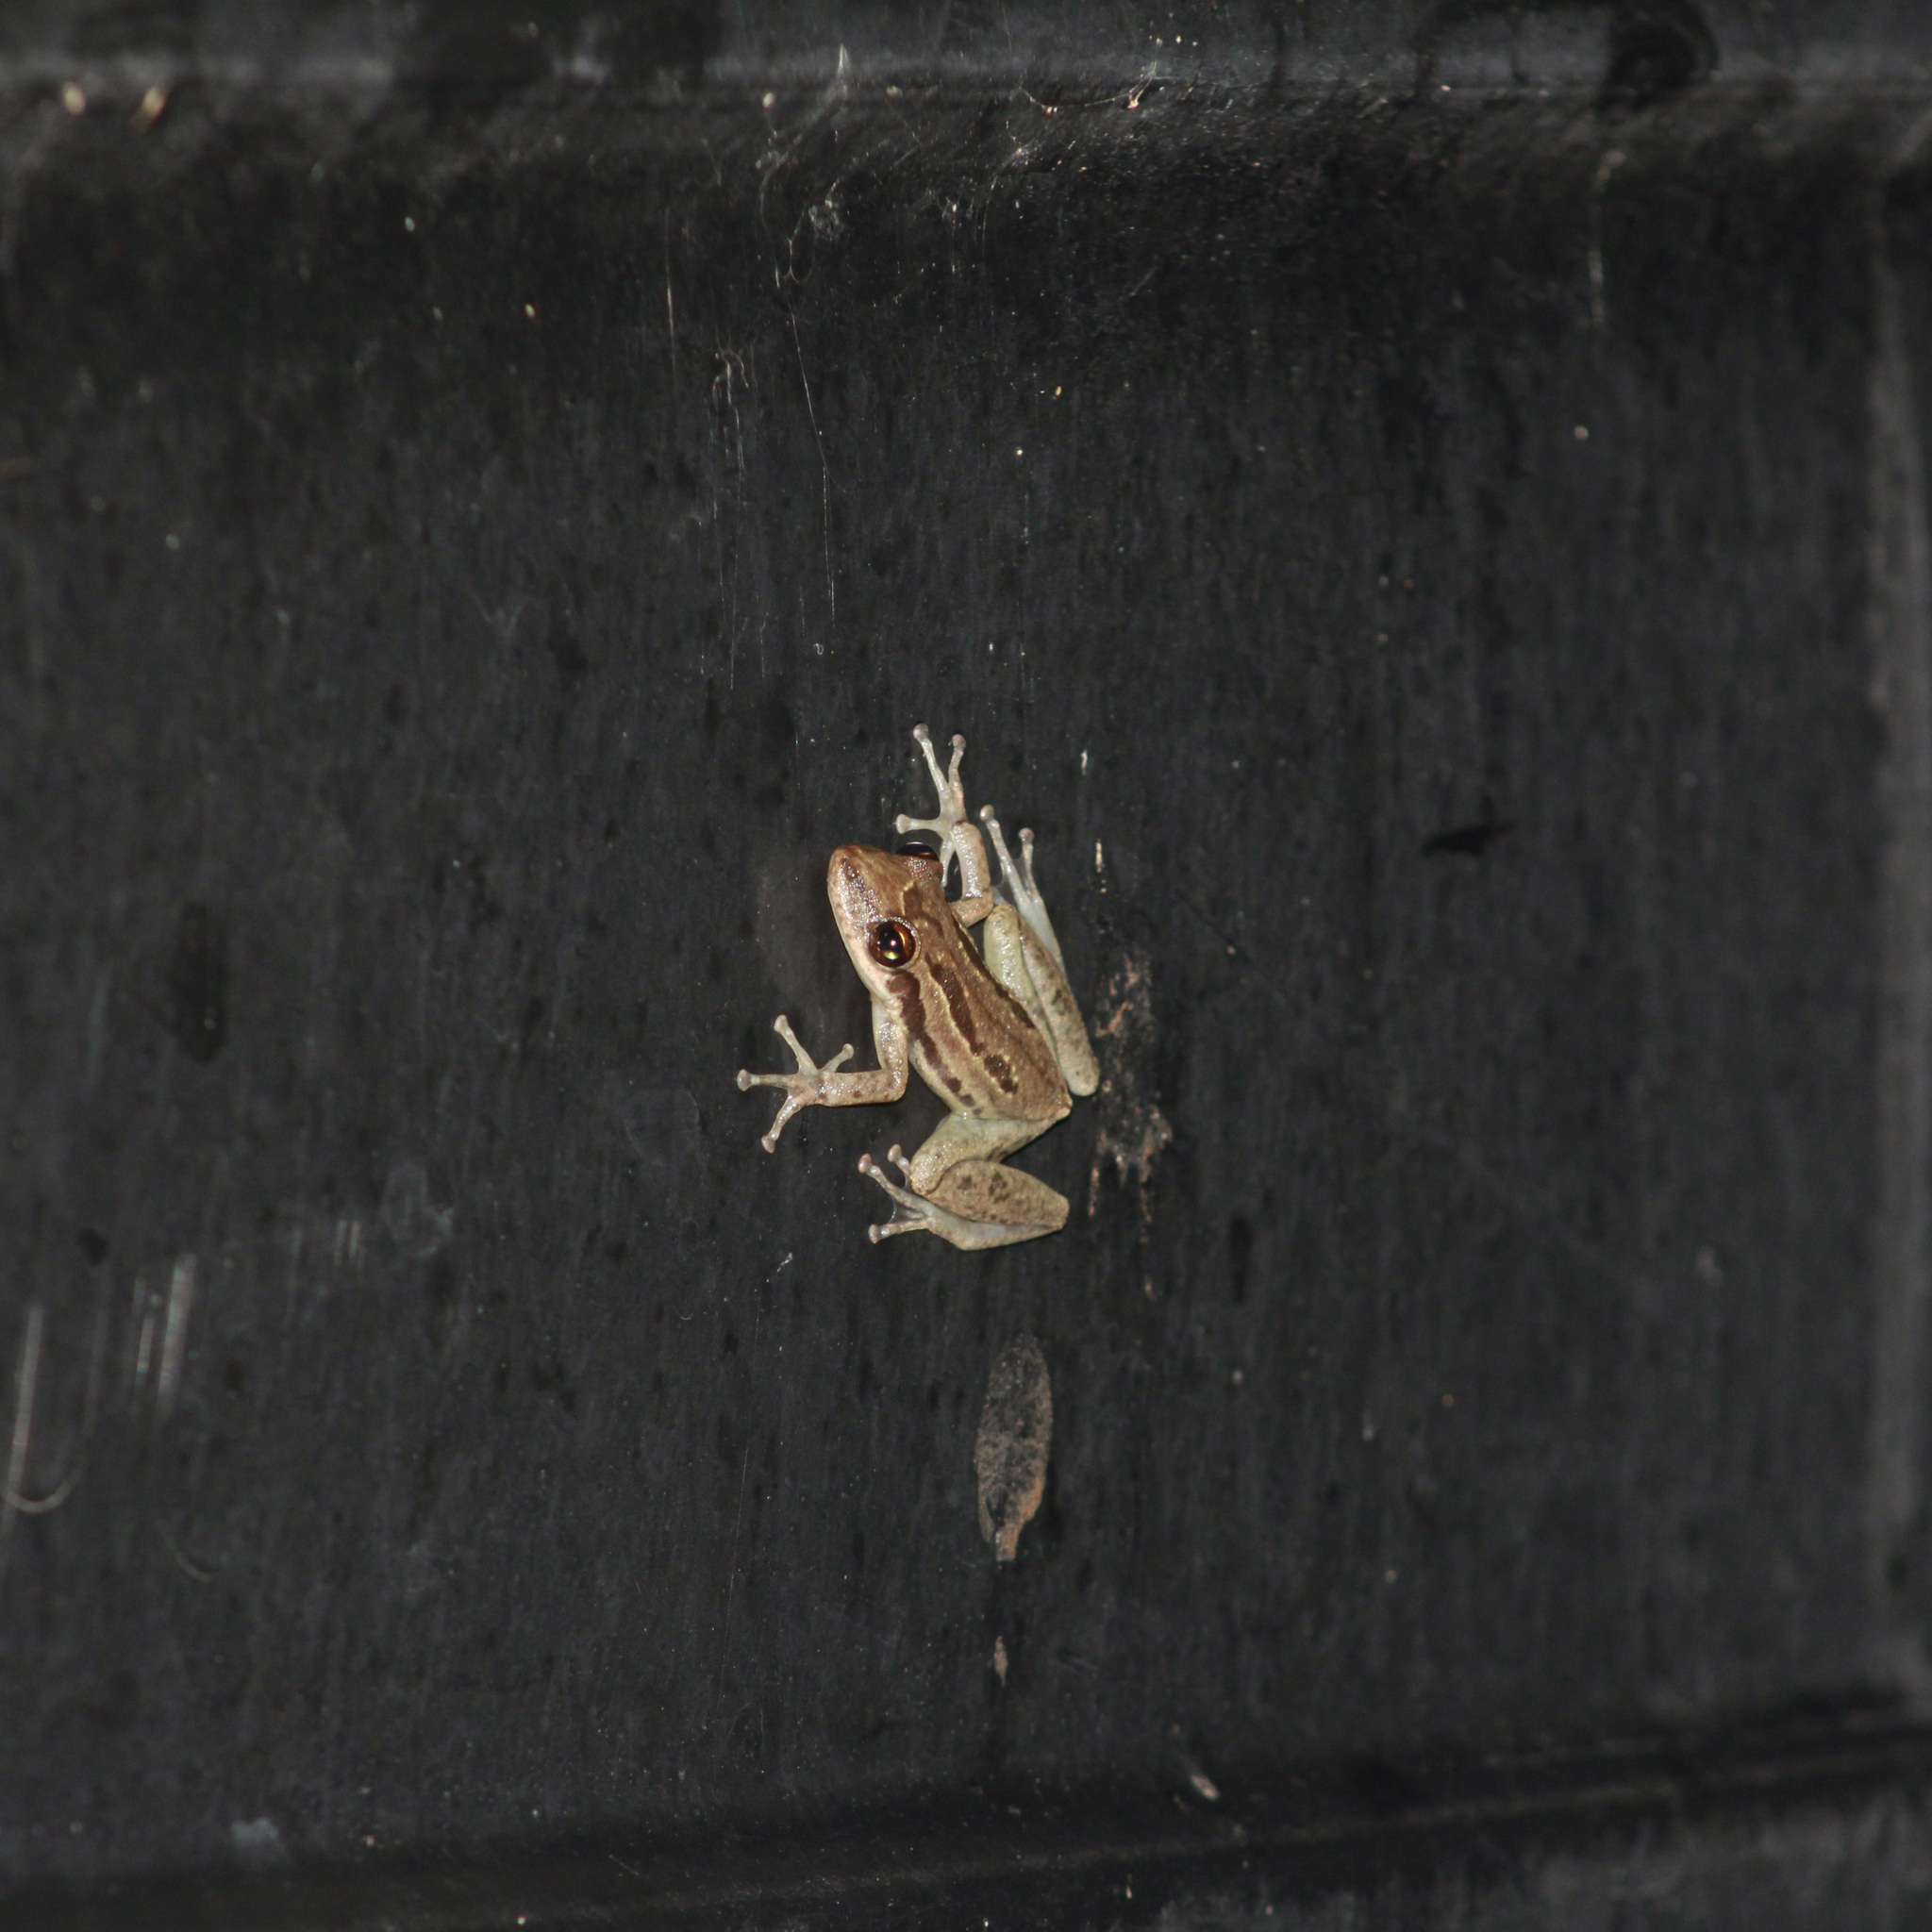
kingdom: Animalia
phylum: Chordata
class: Amphibia
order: Anura
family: Hylidae
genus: Scinax
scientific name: Scinax ruber
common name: Red snouted treefrog
